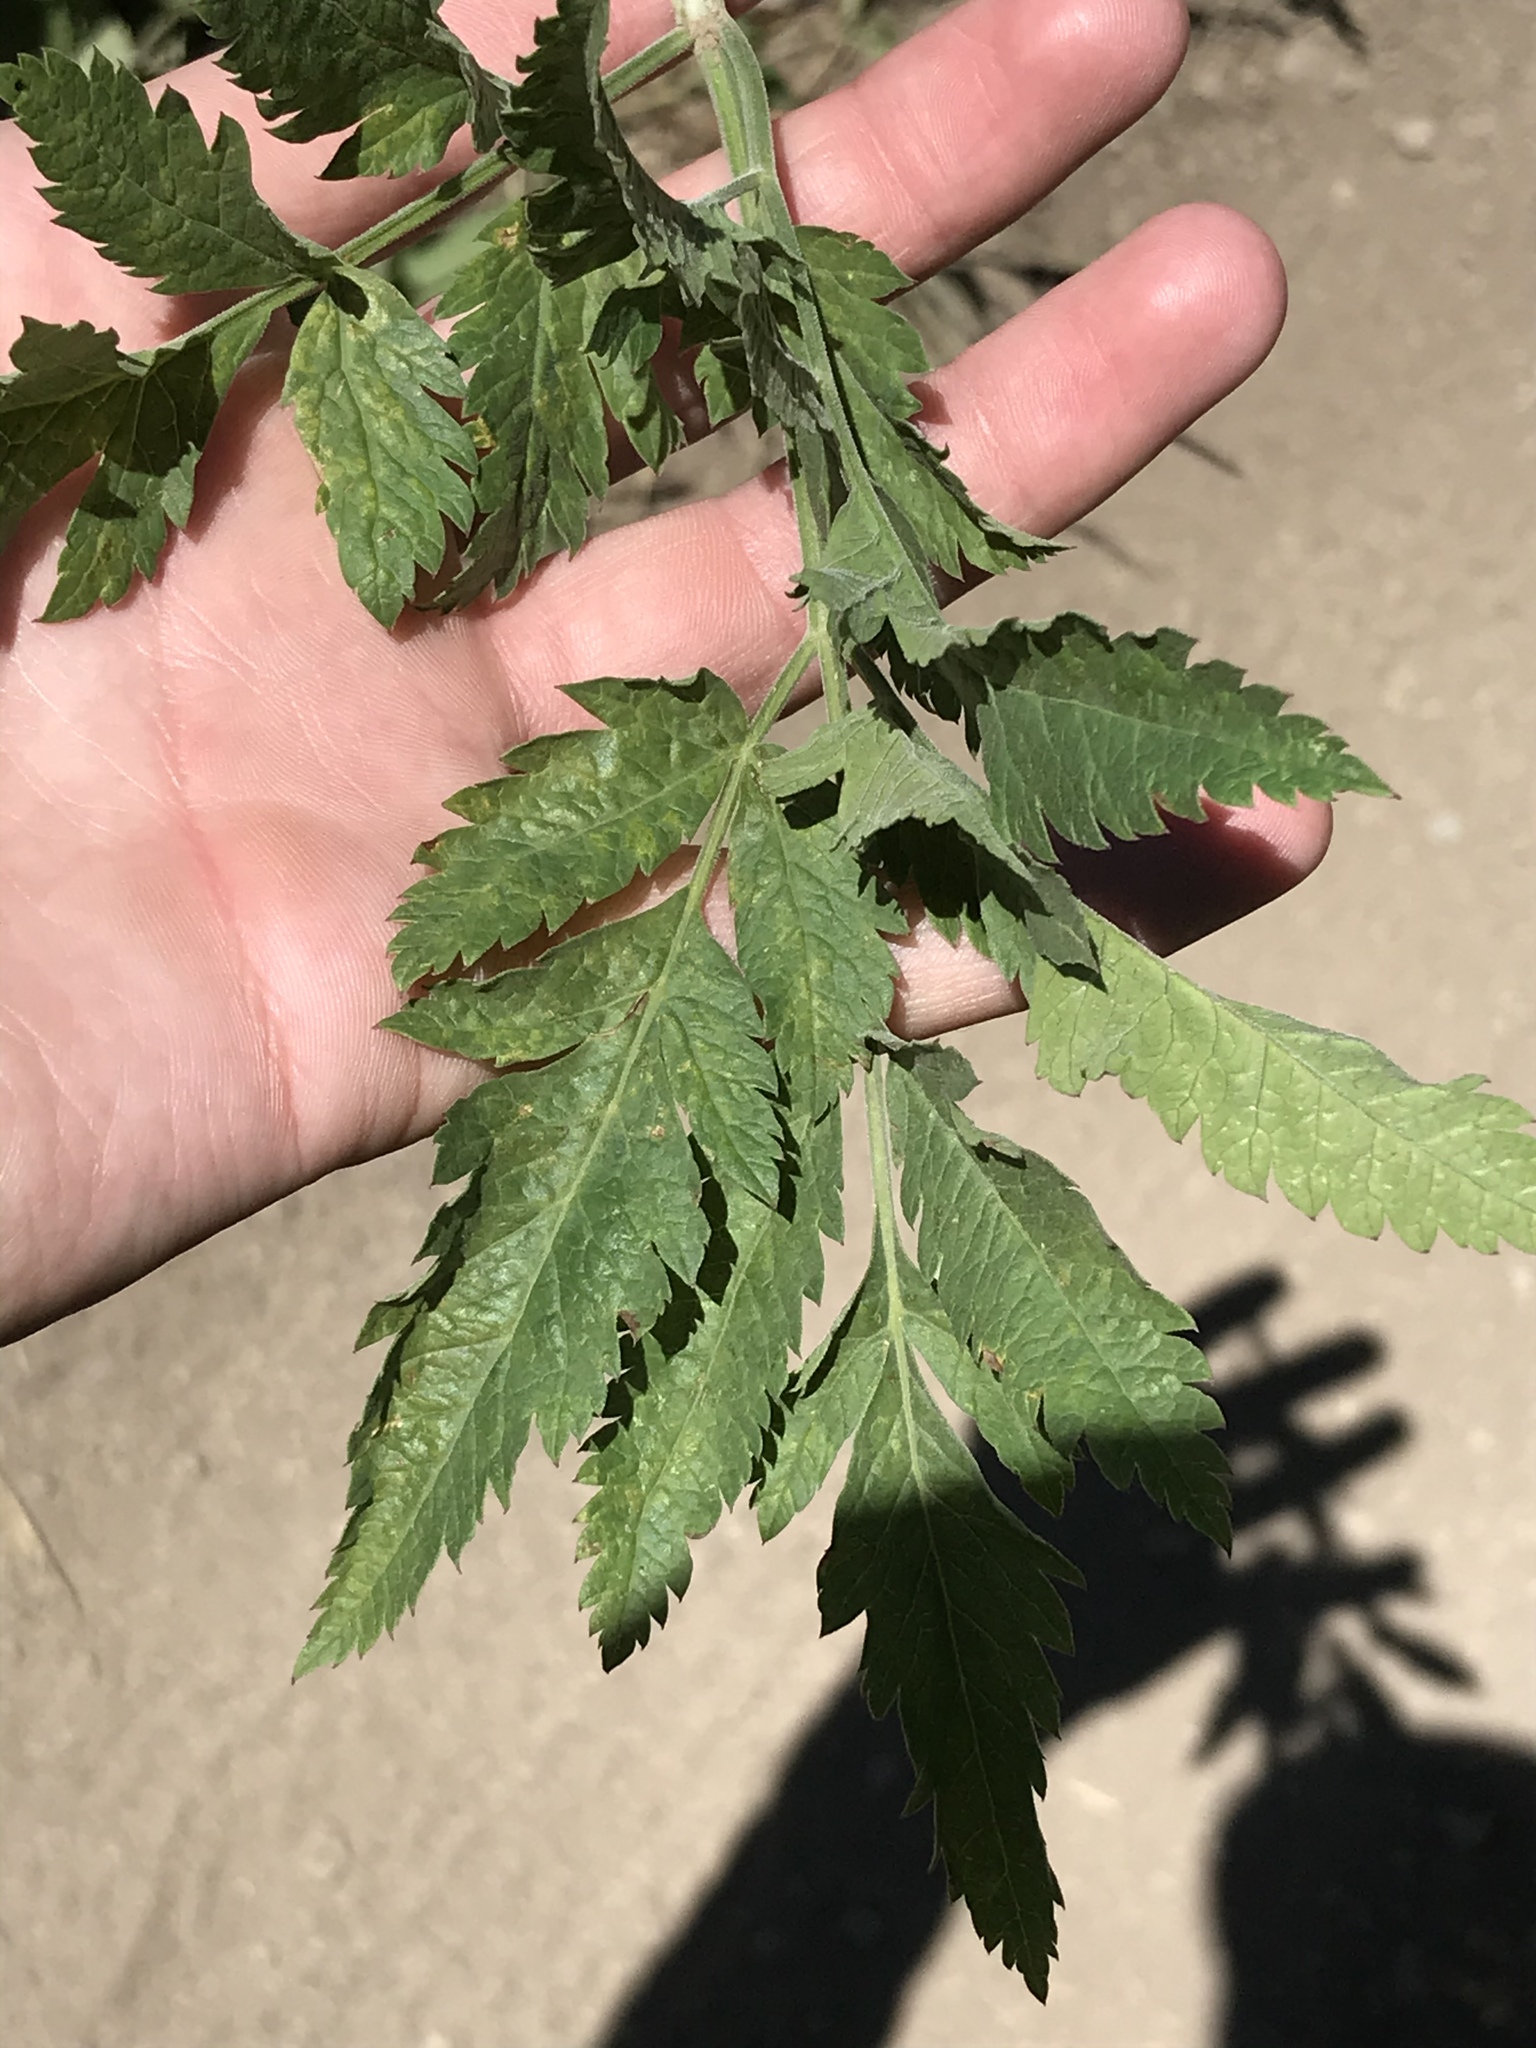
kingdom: Plantae
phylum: Tracheophyta
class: Magnoliopsida
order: Apiales
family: Apiaceae
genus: Osmorhiza
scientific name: Osmorhiza occidentalis
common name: Western sweet cicely
